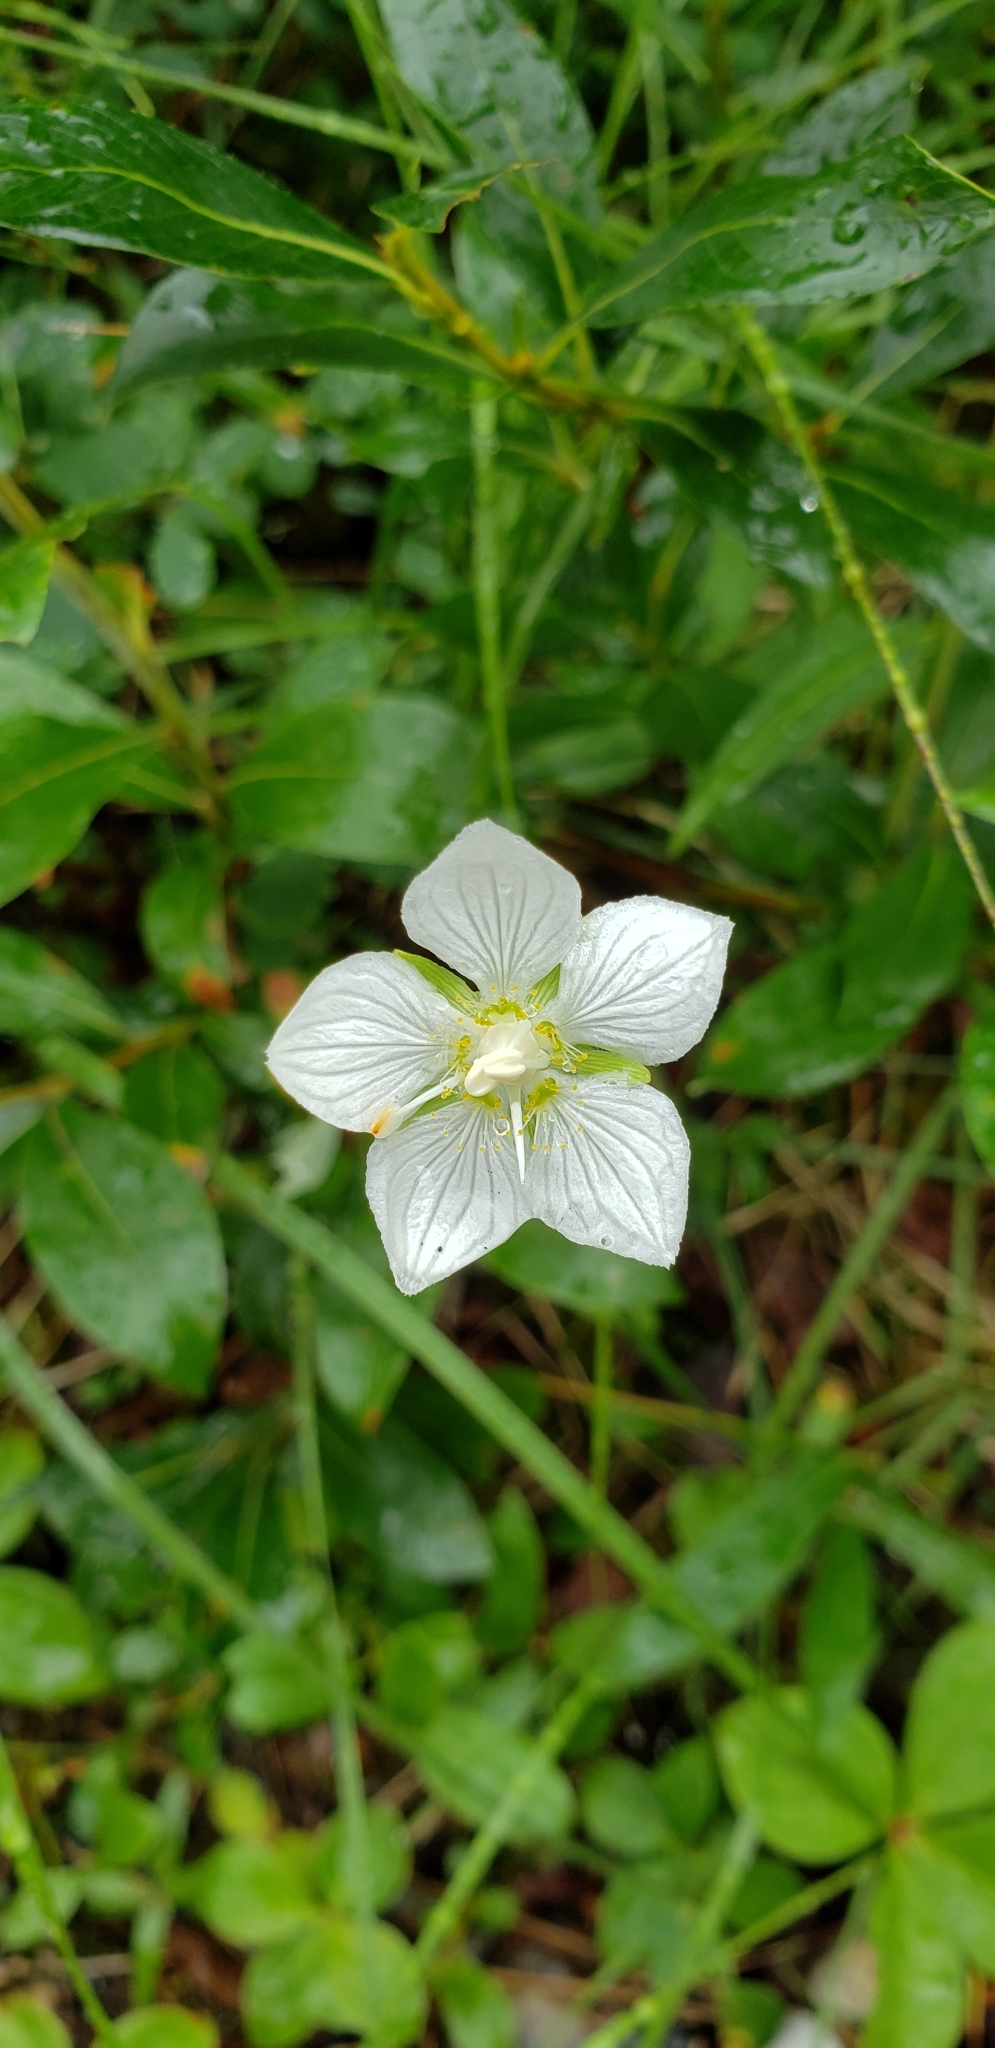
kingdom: Plantae
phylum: Tracheophyta
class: Magnoliopsida
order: Celastrales
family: Parnassiaceae
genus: Parnassia
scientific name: Parnassia palustris
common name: Grass-of-parnassus
